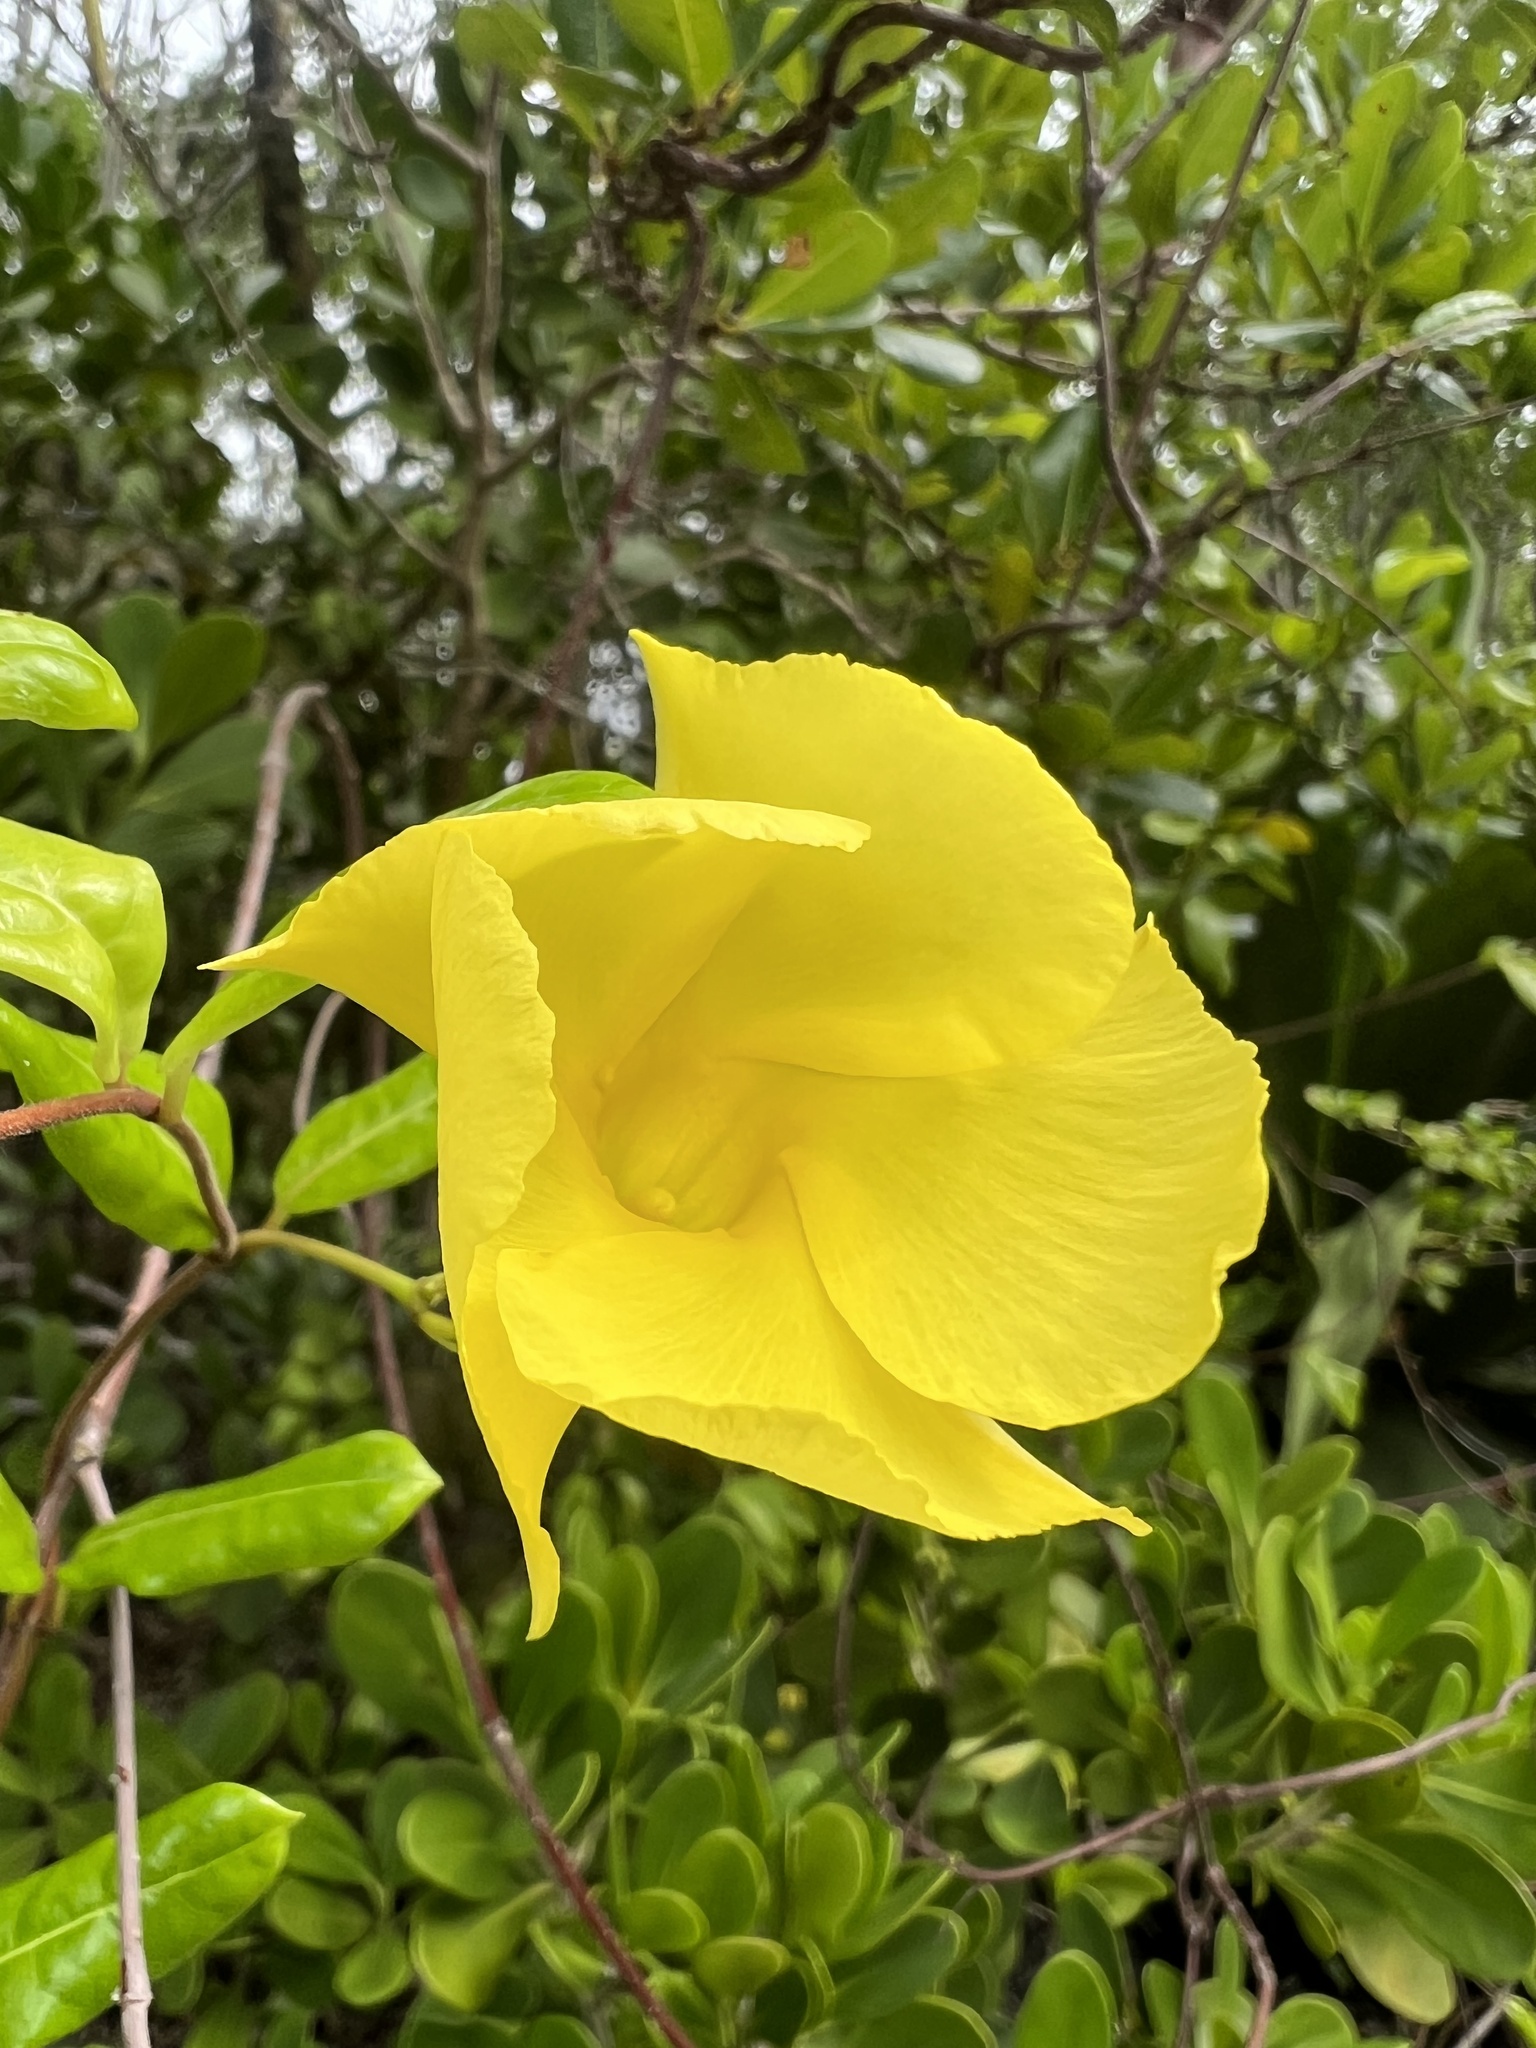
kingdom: Plantae
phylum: Tracheophyta
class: Magnoliopsida
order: Gentianales
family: Apocynaceae
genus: Pentalinon
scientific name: Pentalinon luteum
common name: Licebush
